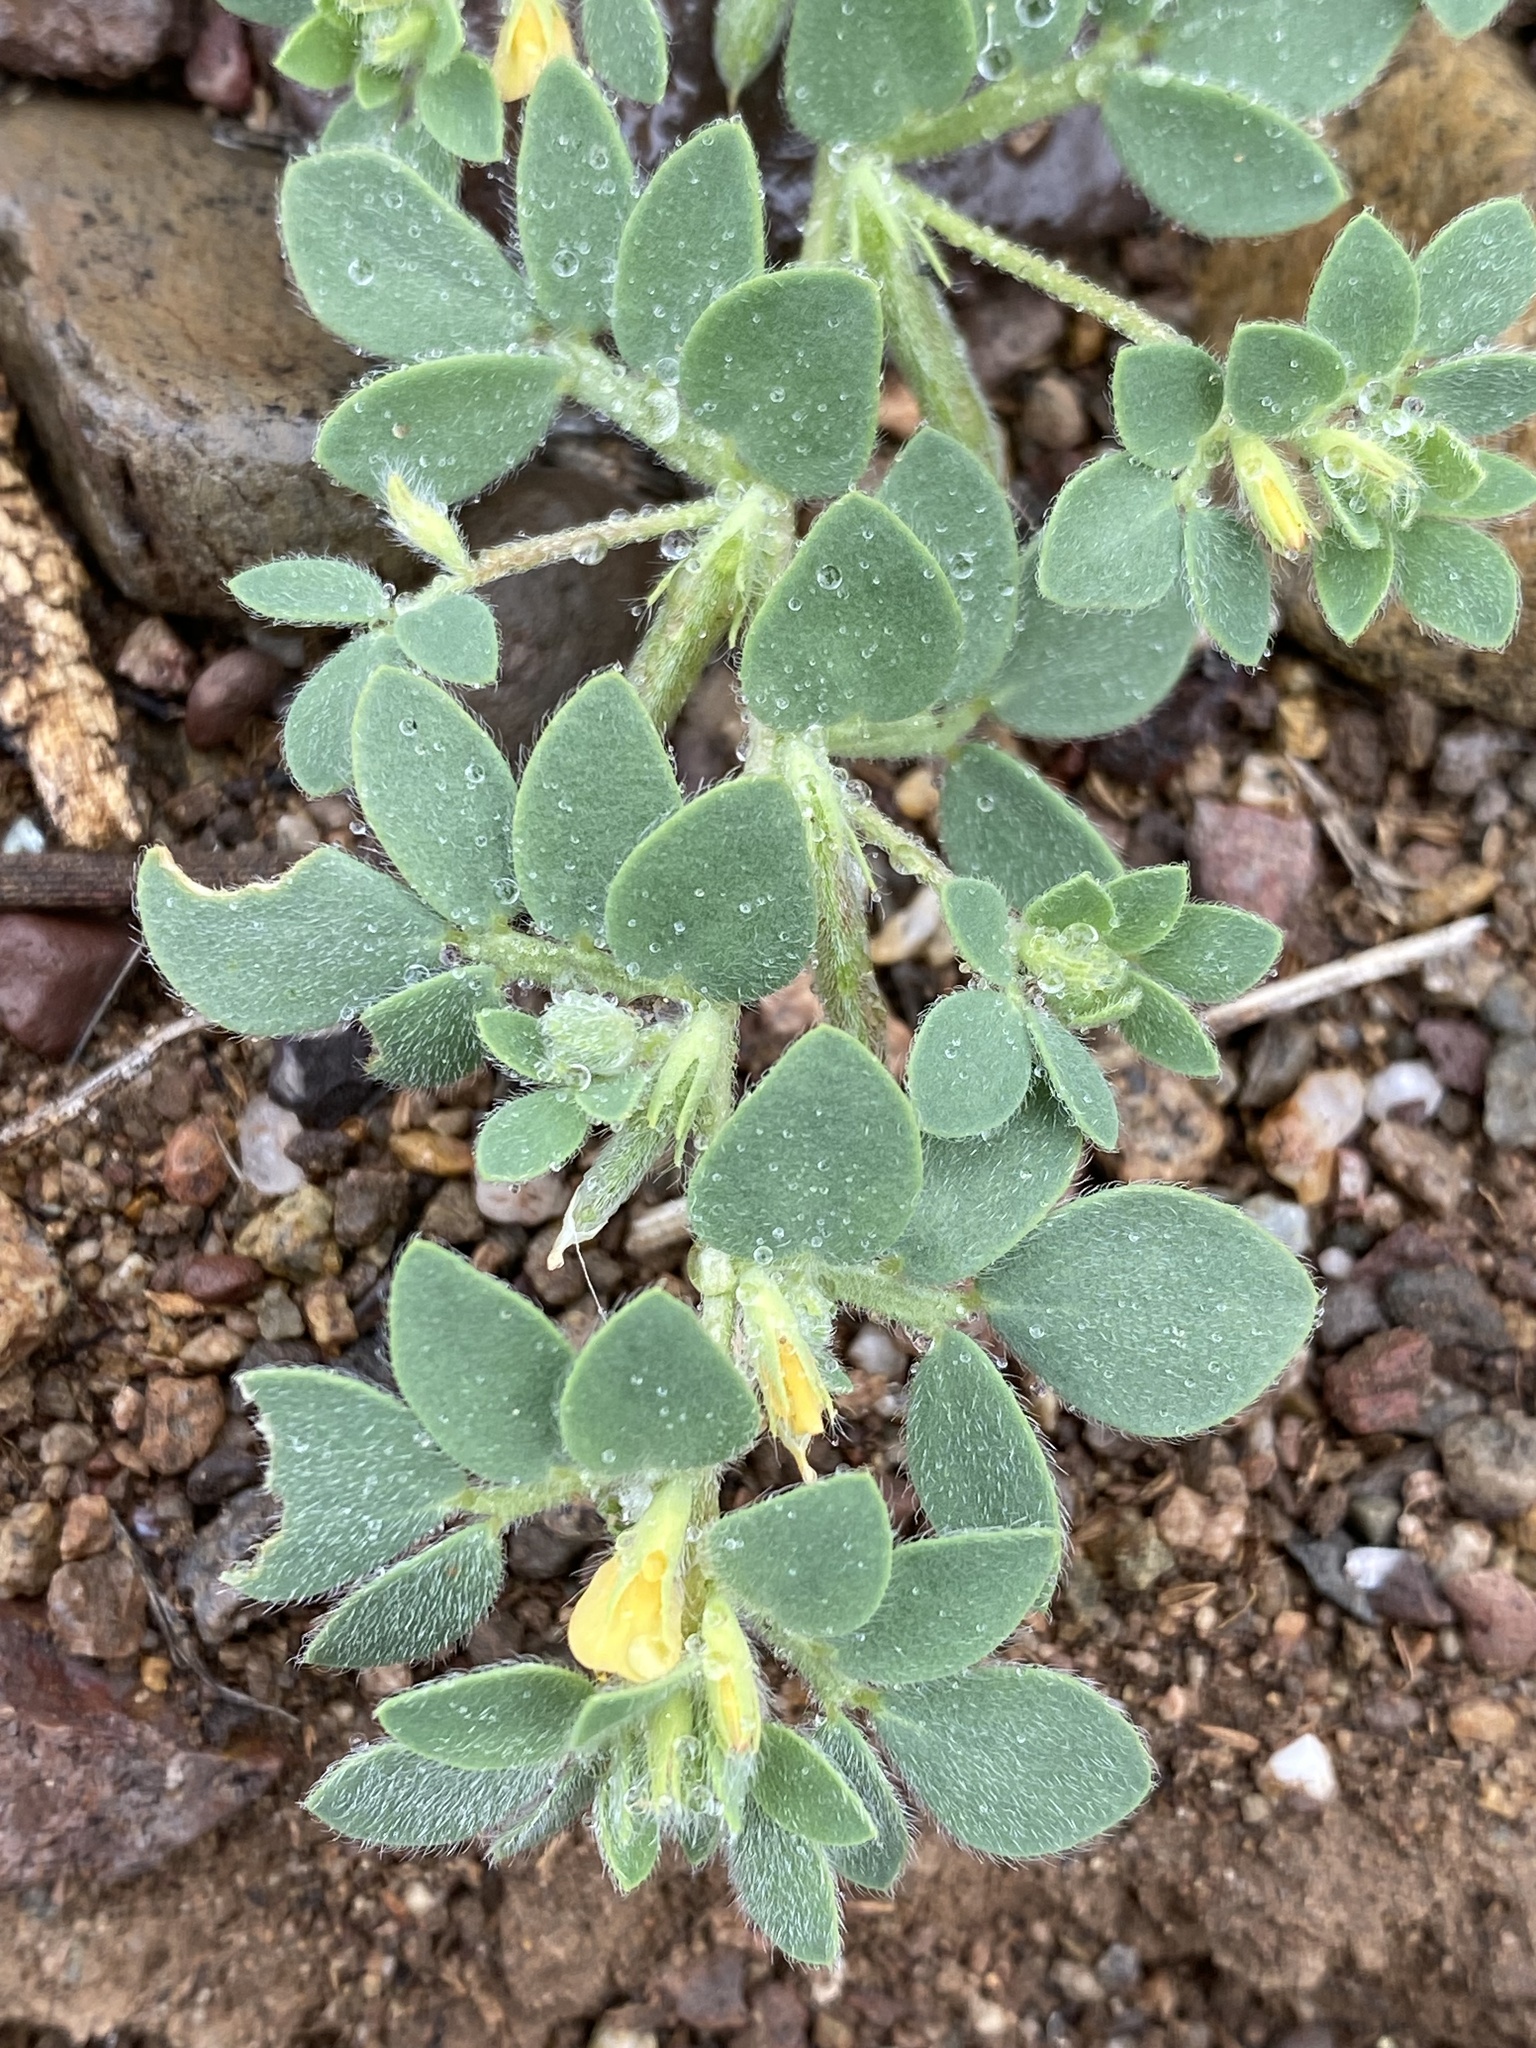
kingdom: Plantae
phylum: Tracheophyta
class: Magnoliopsida
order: Fabales
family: Fabaceae
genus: Acmispon
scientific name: Acmispon brachycarpus
